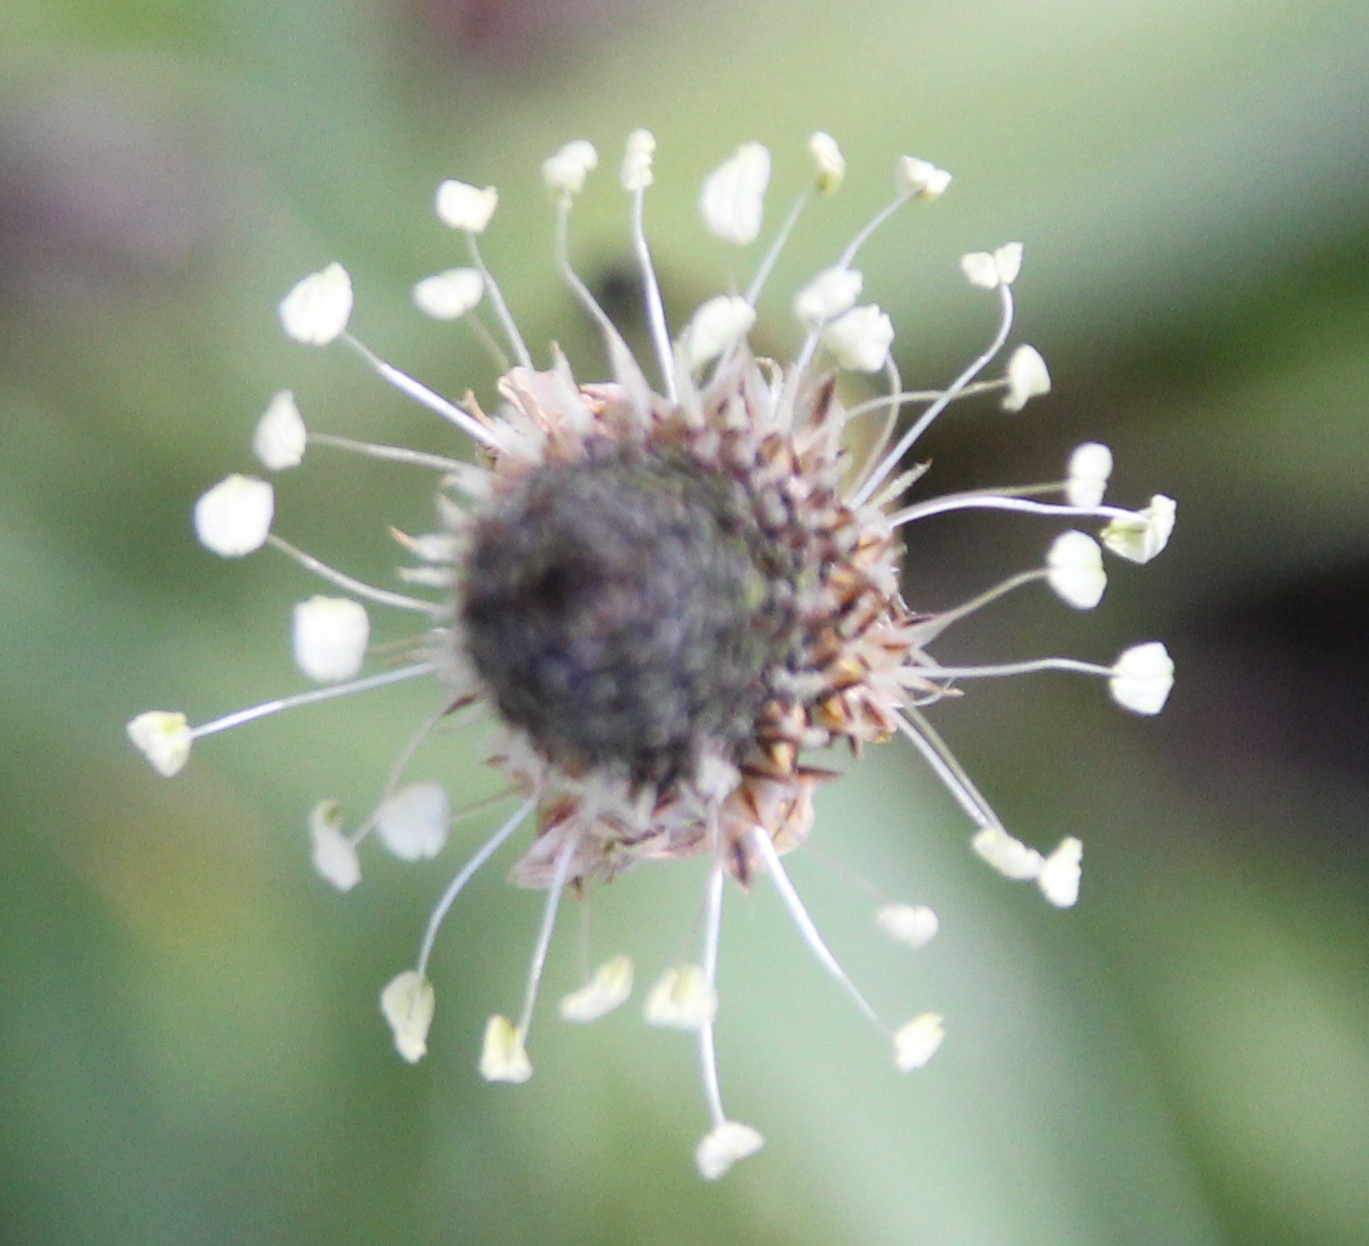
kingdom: Plantae
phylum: Tracheophyta
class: Magnoliopsida
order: Lamiales
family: Plantaginaceae
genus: Plantago
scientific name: Plantago lanceolata
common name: Ribwort plantain
